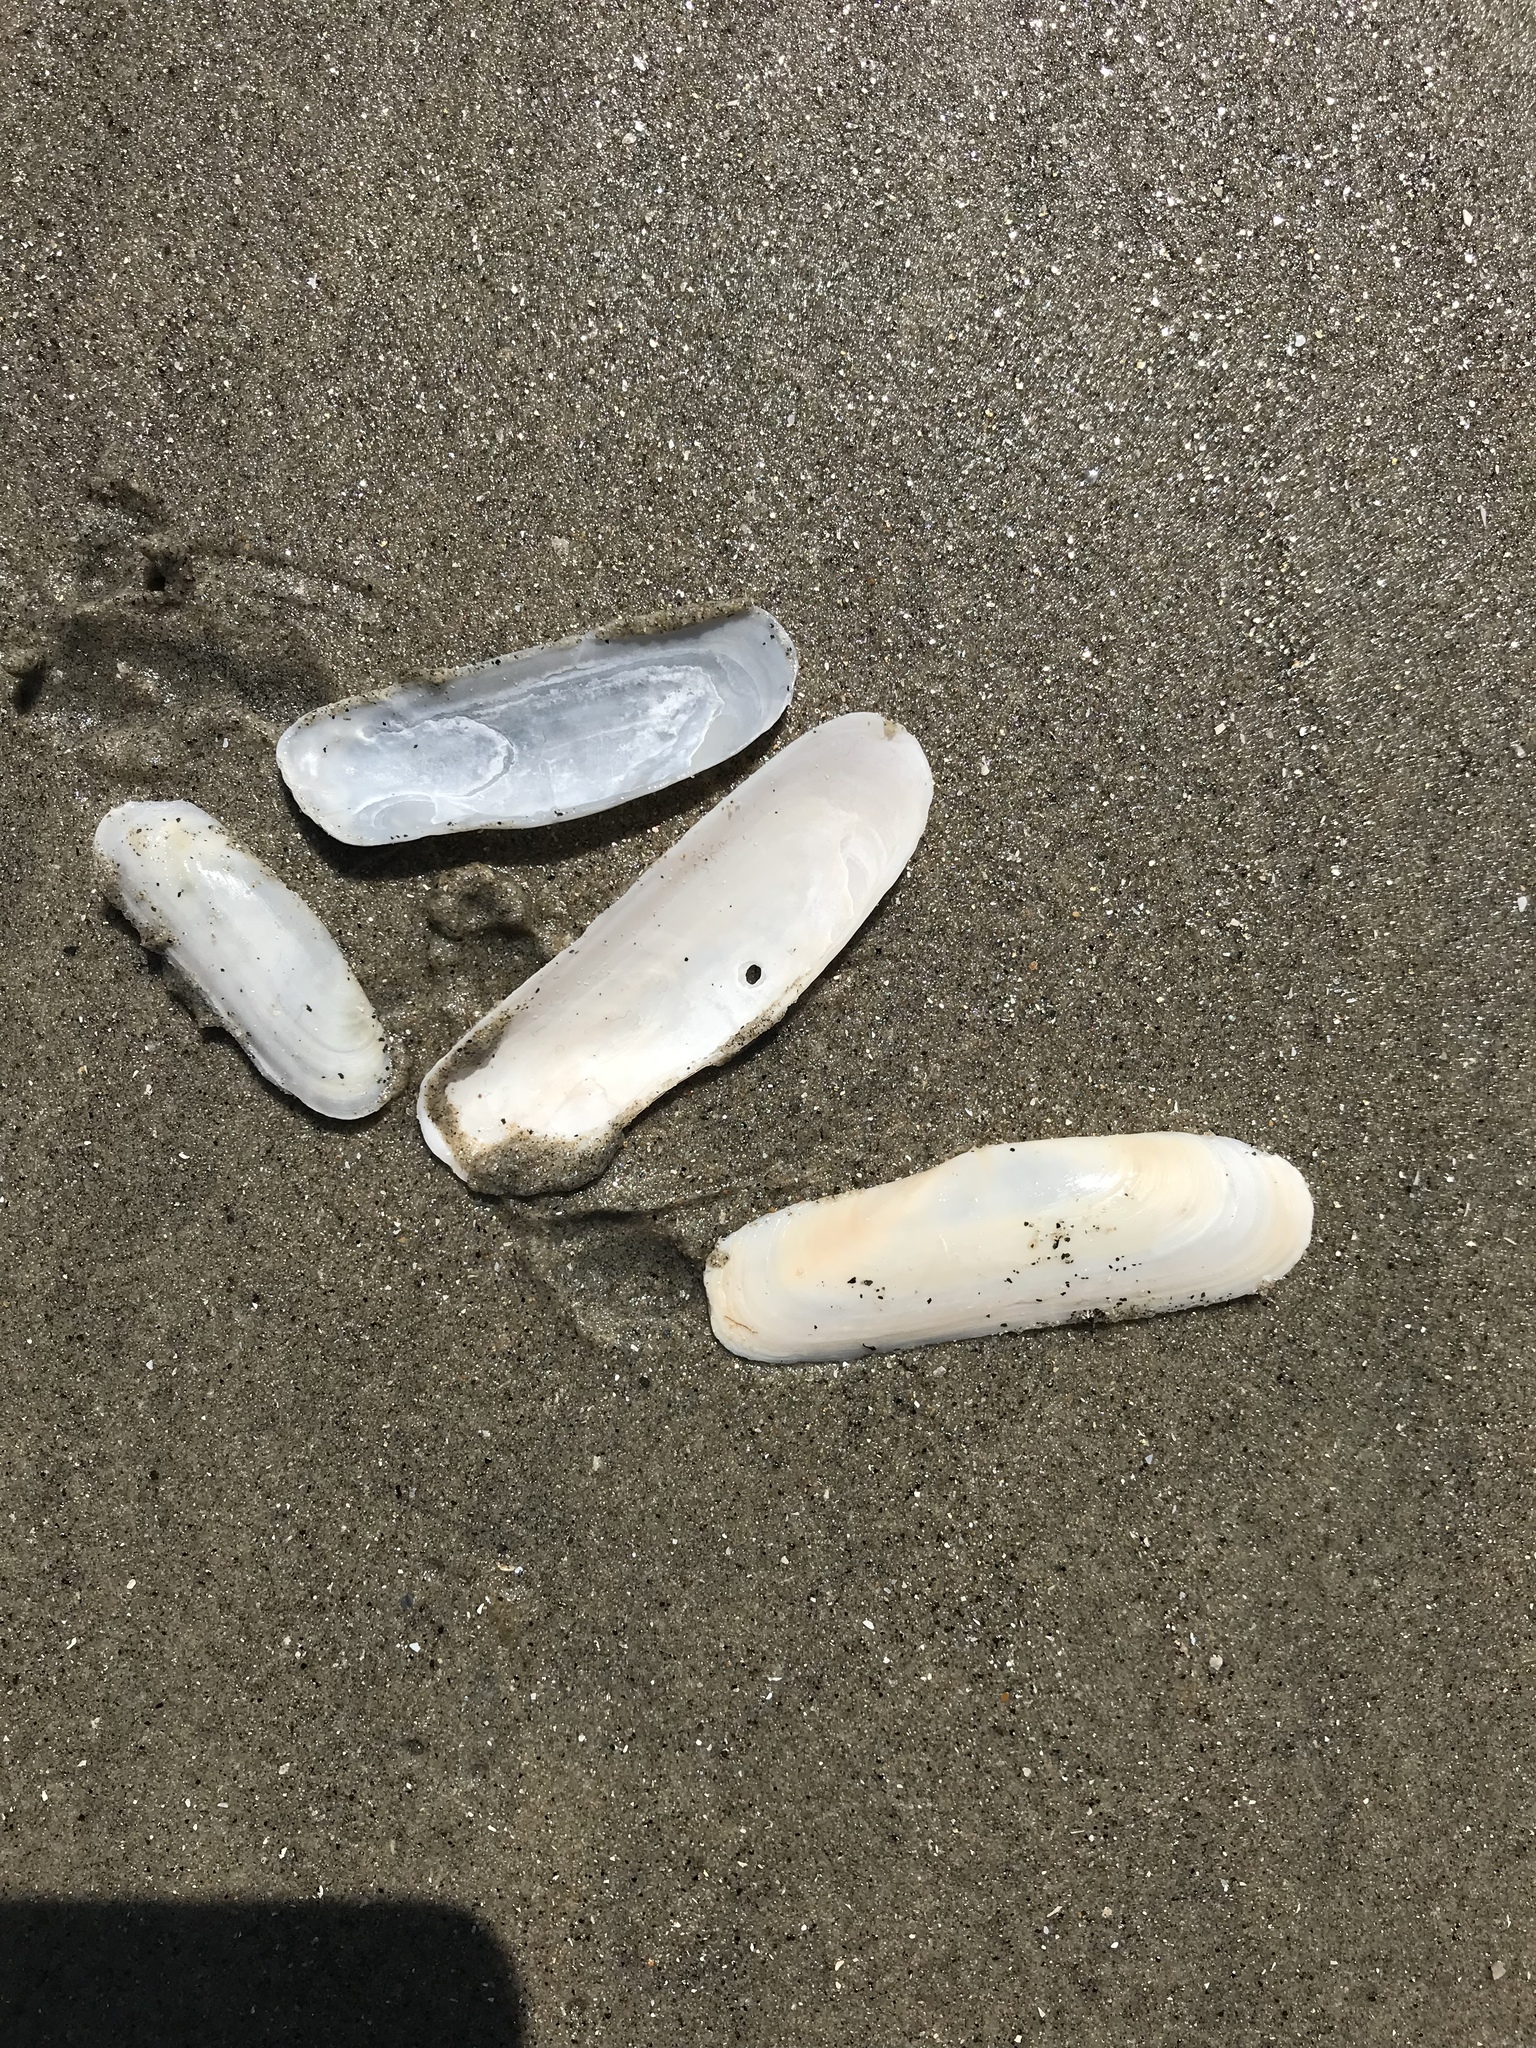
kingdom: Animalia
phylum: Mollusca
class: Bivalvia
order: Cardiida
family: Solecurtidae
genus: Tagelus
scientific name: Tagelus californianus
